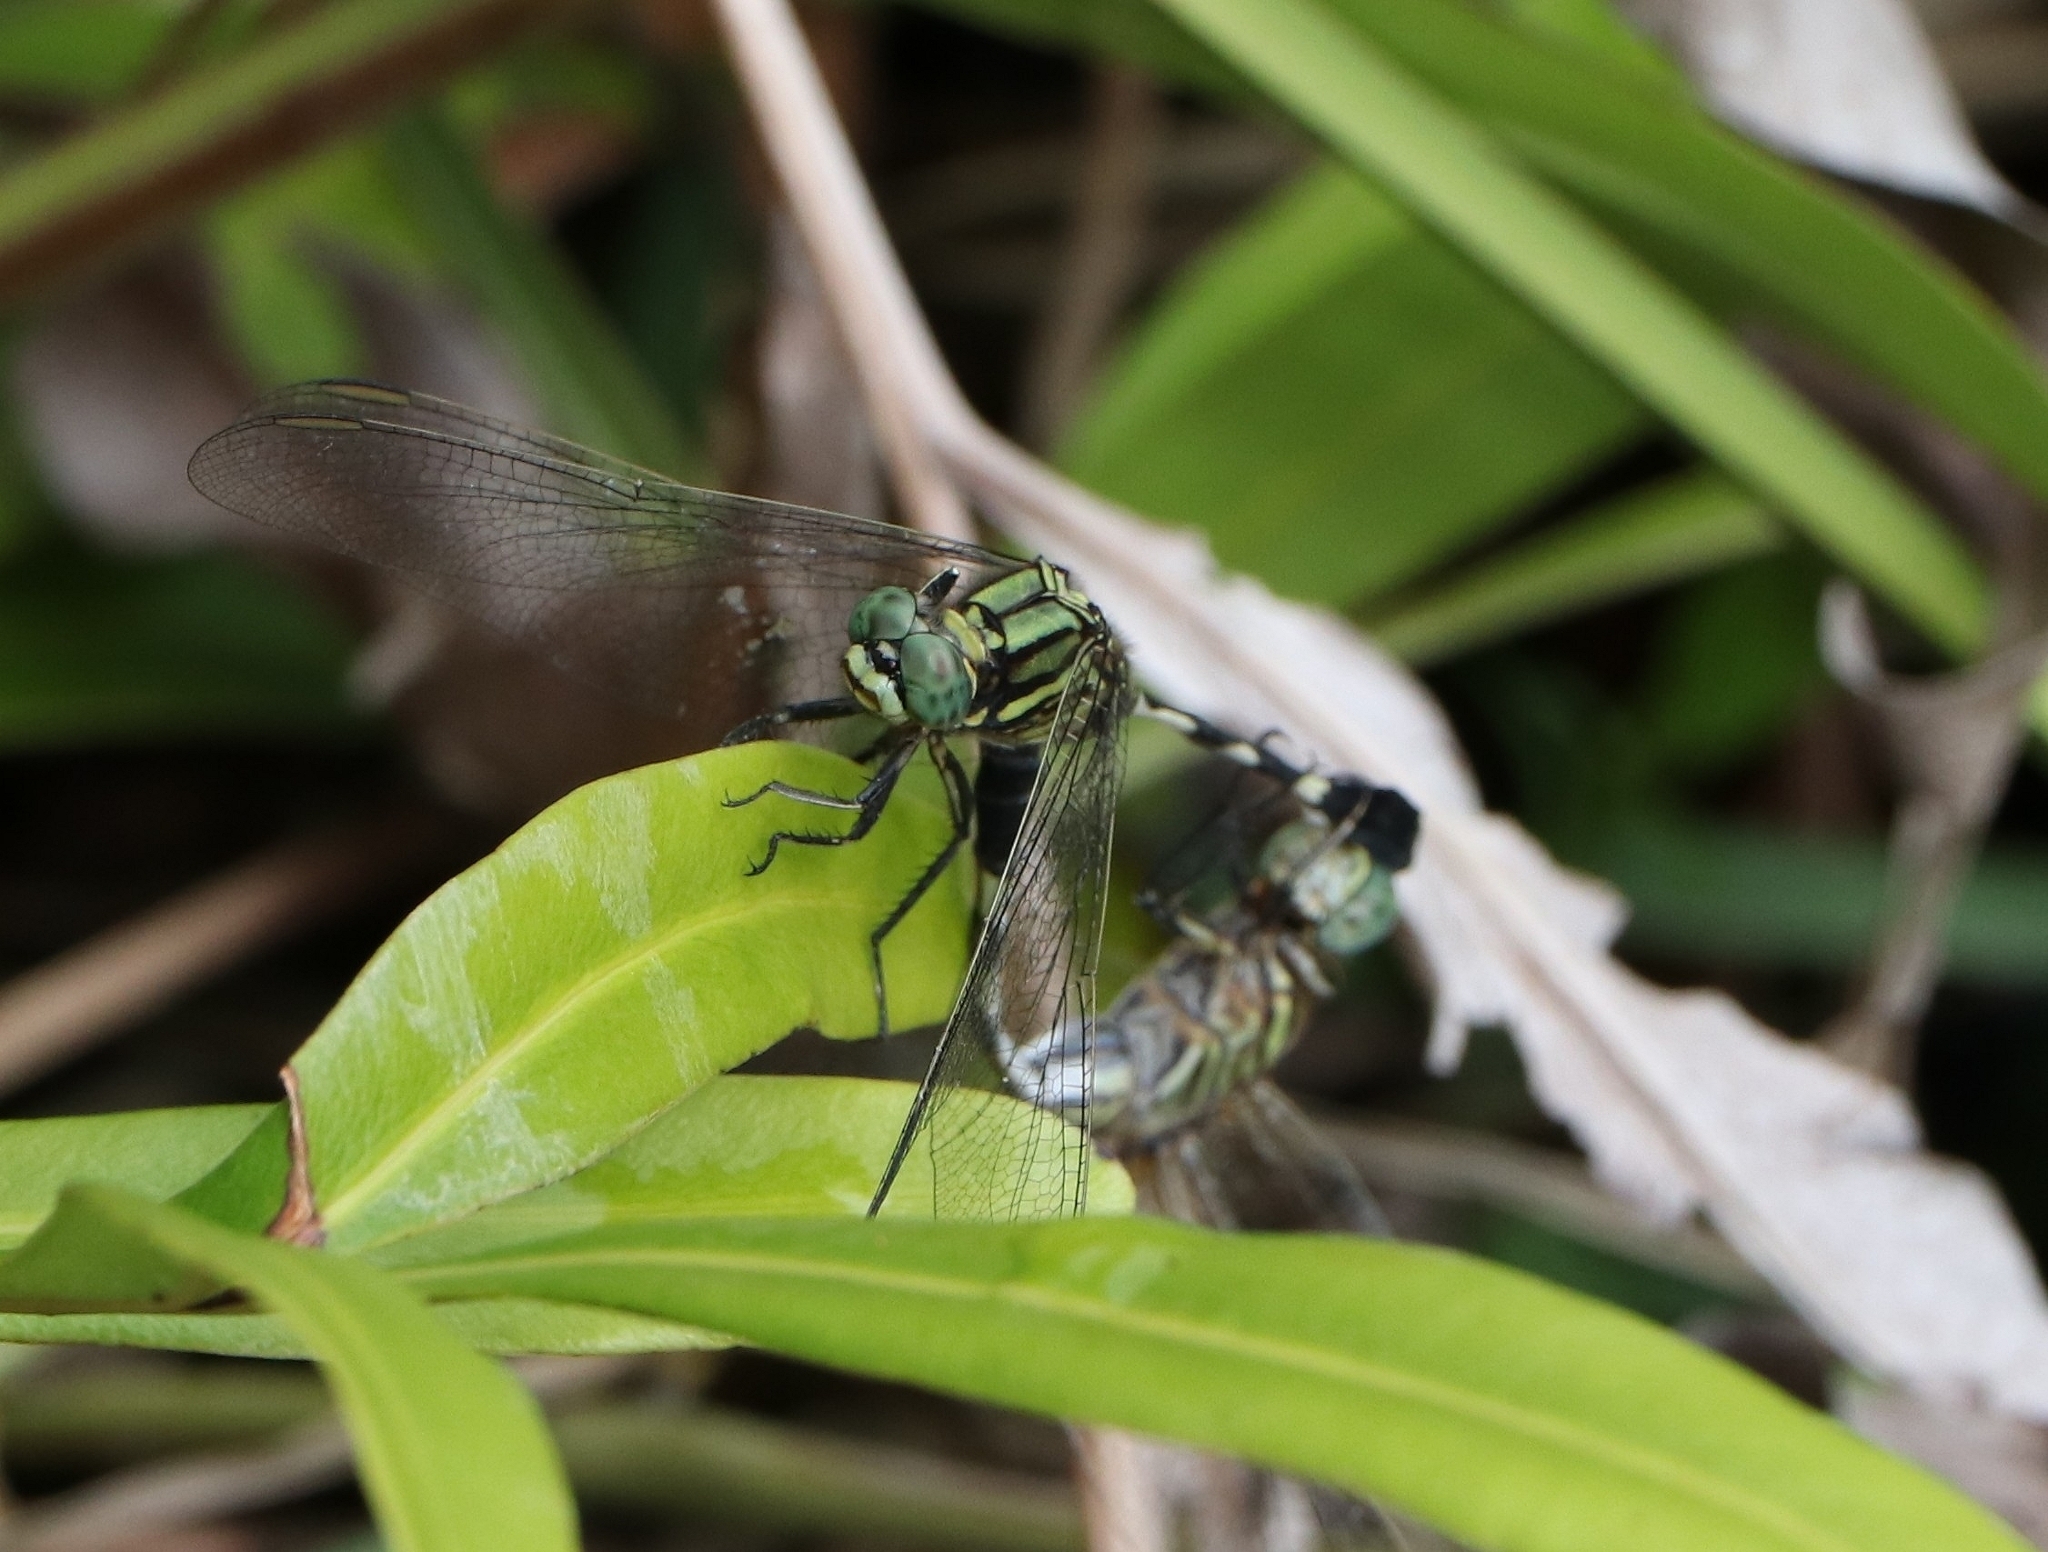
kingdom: Animalia
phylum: Arthropoda
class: Insecta
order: Odonata
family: Libellulidae
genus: Orthetrum
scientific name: Orthetrum sabina
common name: Slender skimmer
